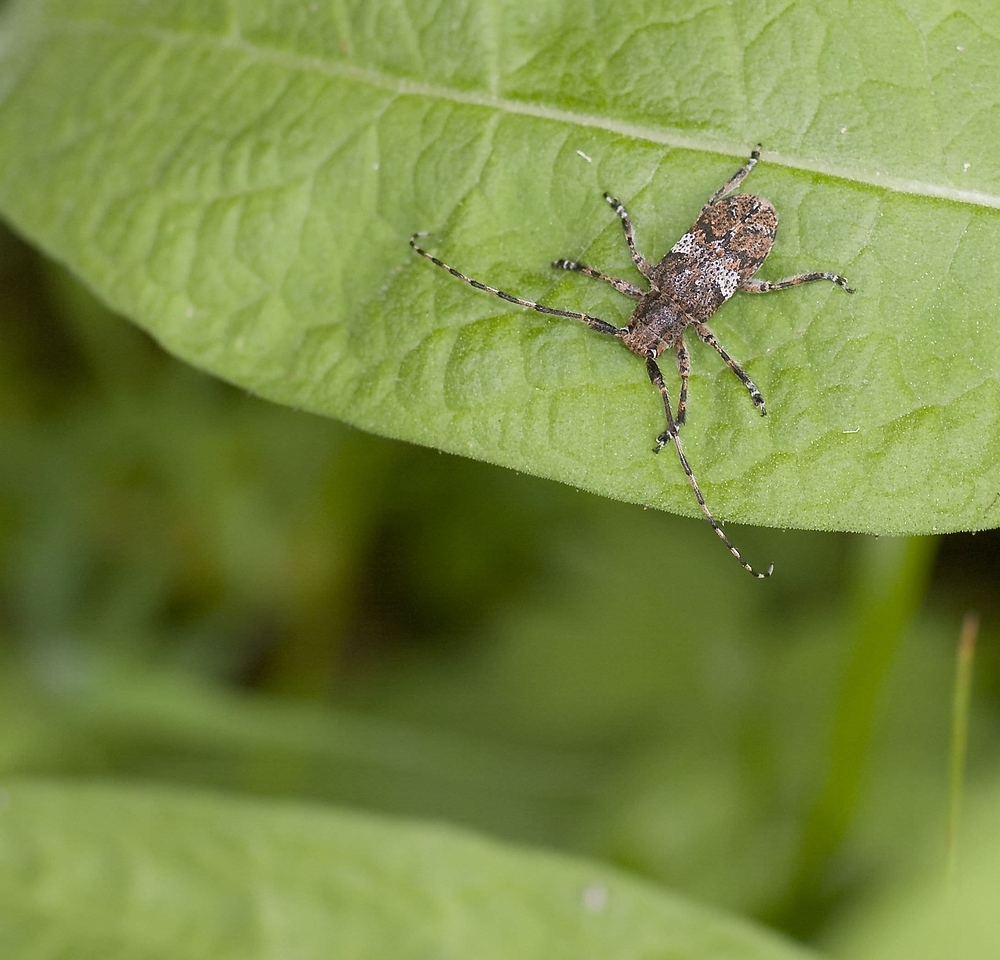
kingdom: Animalia
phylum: Arthropoda
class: Insecta
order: Coleoptera
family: Cerambycidae
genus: Mesosa
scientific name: Mesosa nebulosa
